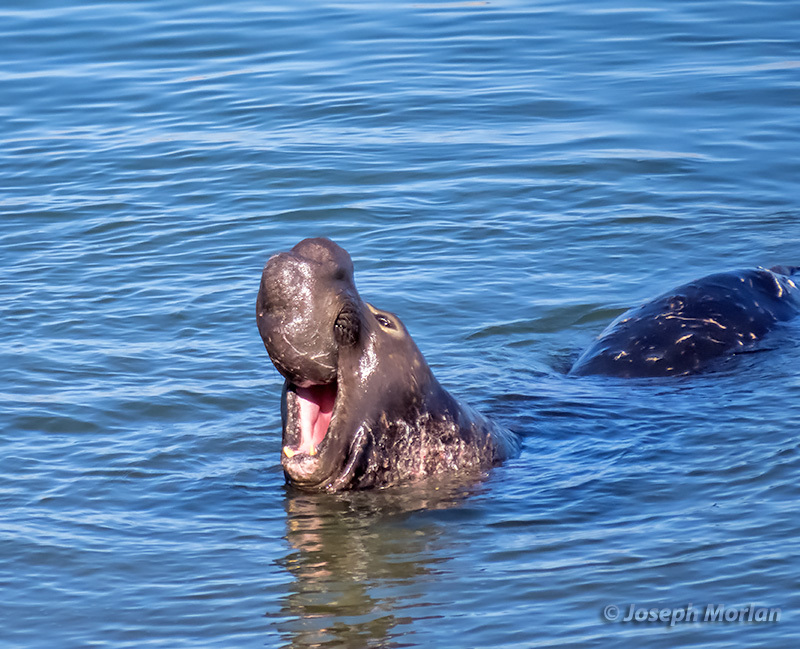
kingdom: Animalia
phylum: Chordata
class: Mammalia
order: Carnivora
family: Phocidae
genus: Mirounga
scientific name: Mirounga angustirostris
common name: Northern elephant seal
